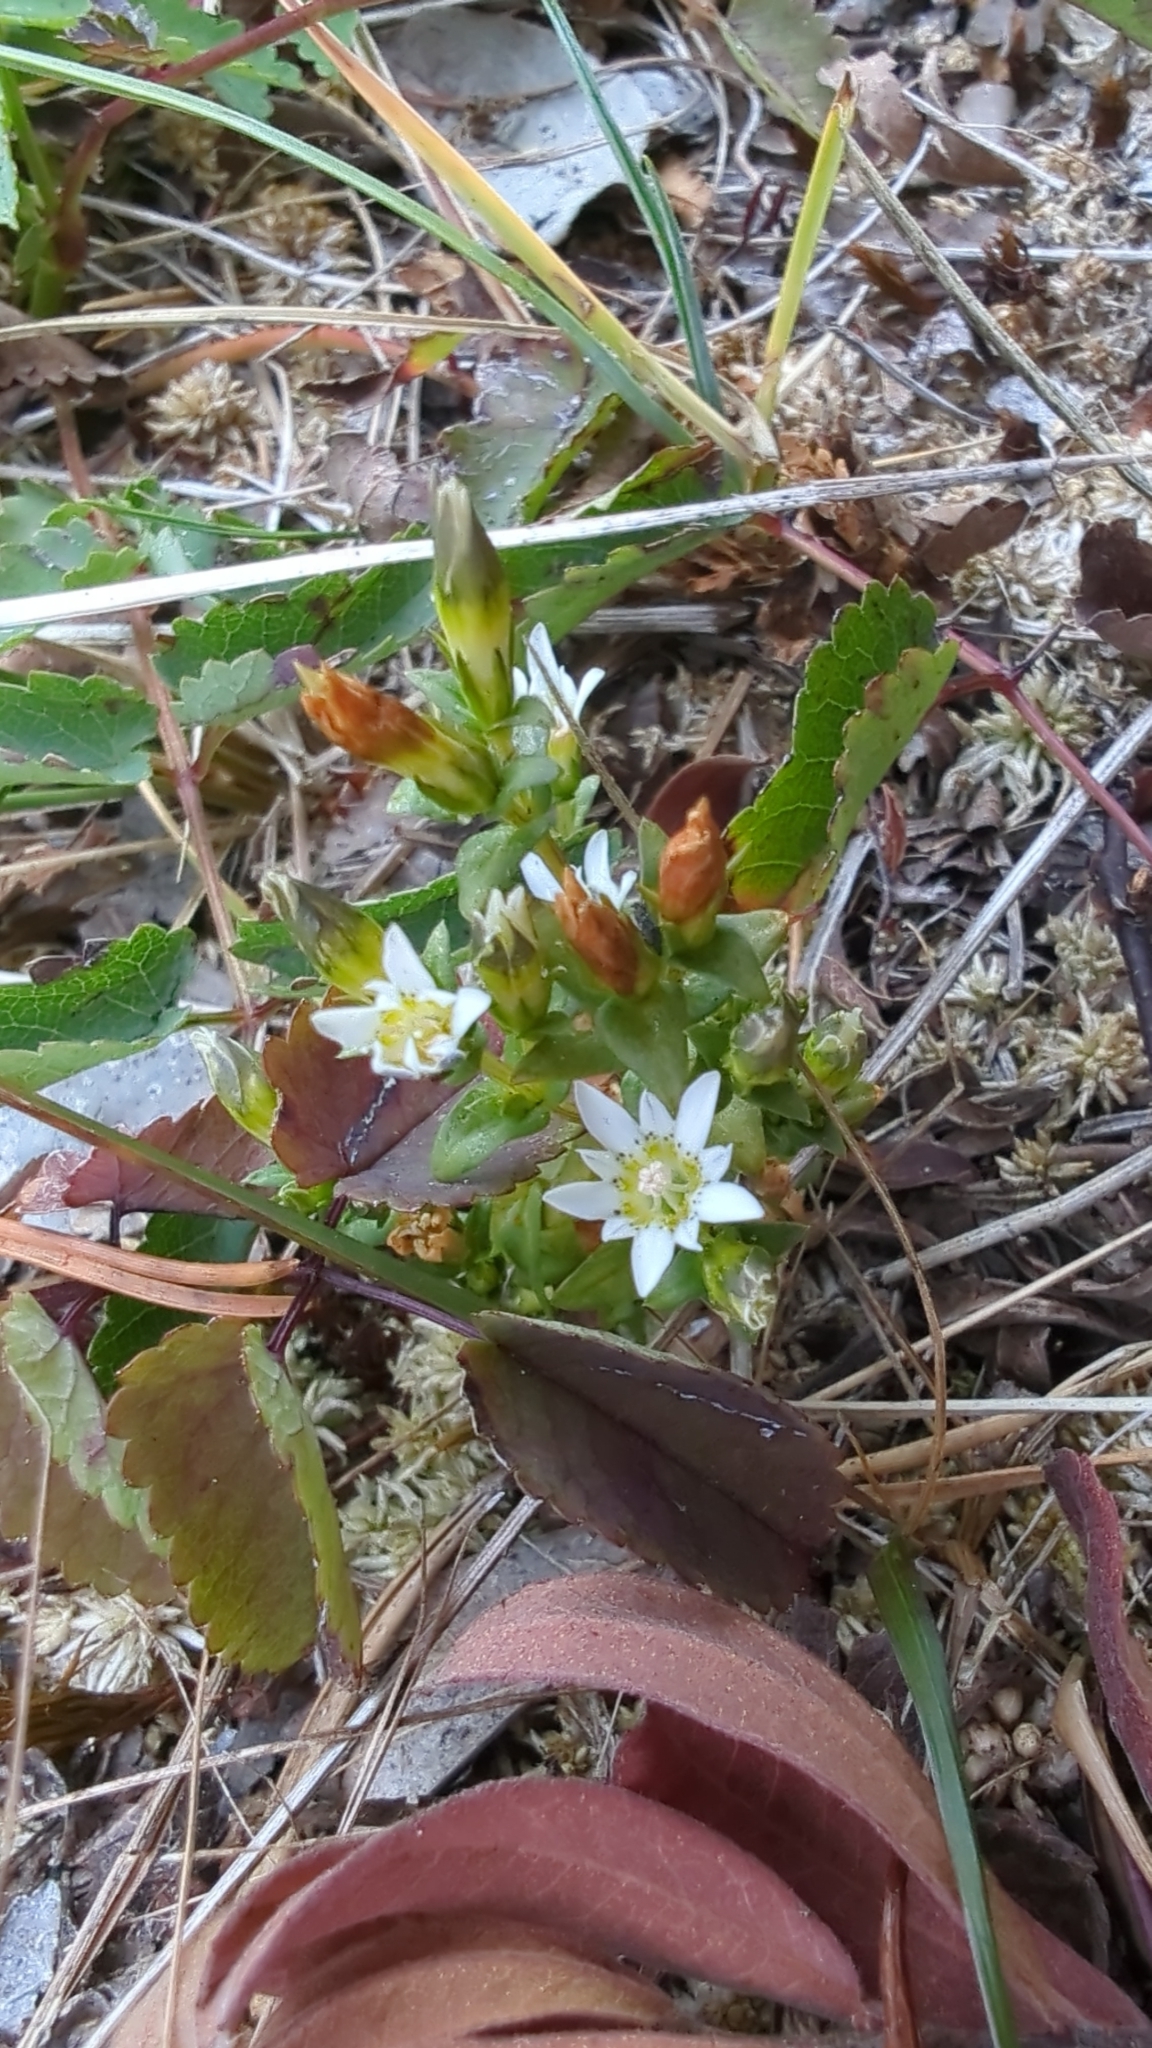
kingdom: Plantae
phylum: Tracheophyta
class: Magnoliopsida
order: Gentianales
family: Gentianaceae
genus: Gentiana
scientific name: Gentiana douglasiana
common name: Swamp gentian
